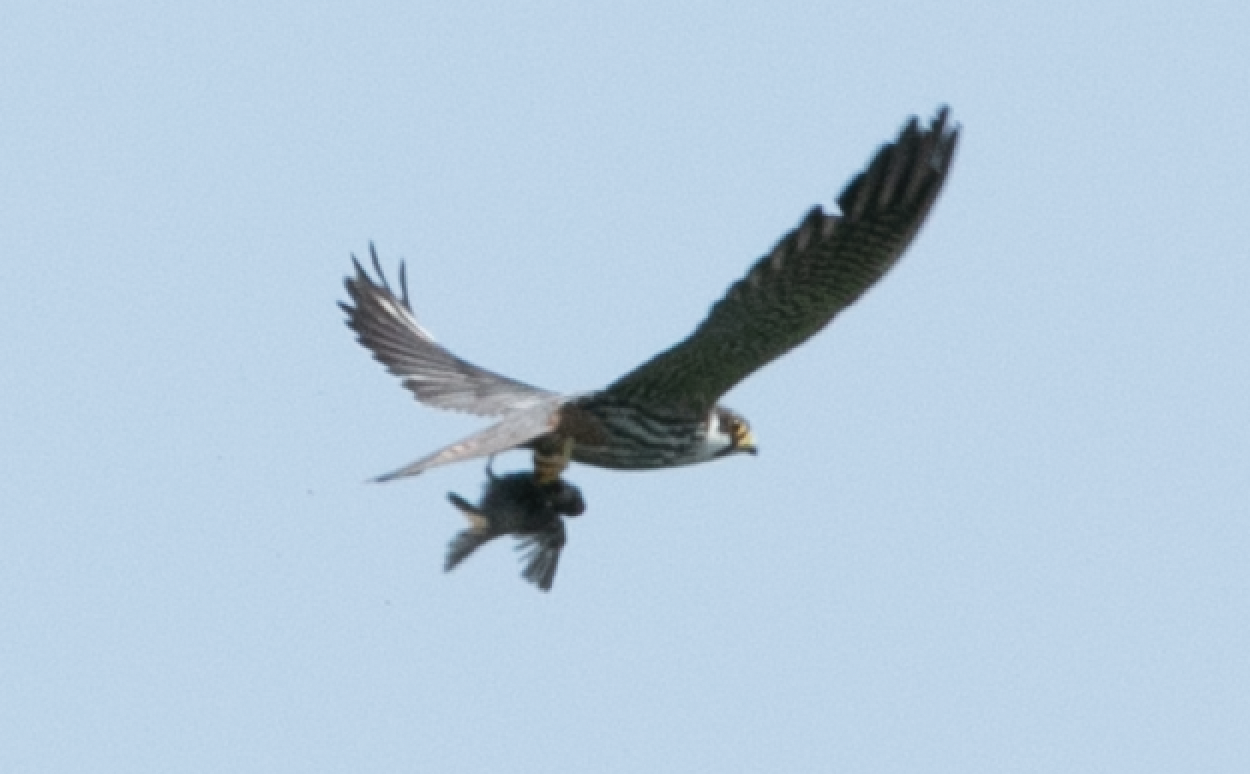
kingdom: Animalia
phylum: Chordata
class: Aves
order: Falconiformes
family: Falconidae
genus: Falco
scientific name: Falco subbuteo
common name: Eurasian hobby
